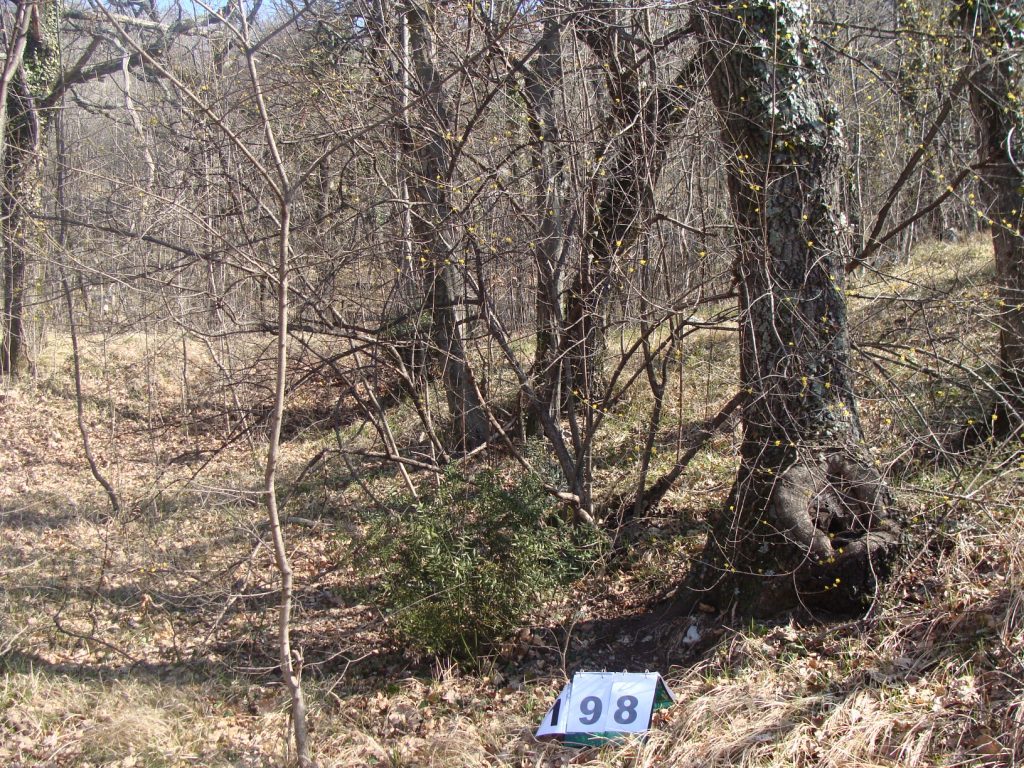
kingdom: Plantae
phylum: Tracheophyta
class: Magnoliopsida
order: Cornales
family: Cornaceae
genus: Cornus
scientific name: Cornus mas
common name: Cornelian-cherry
